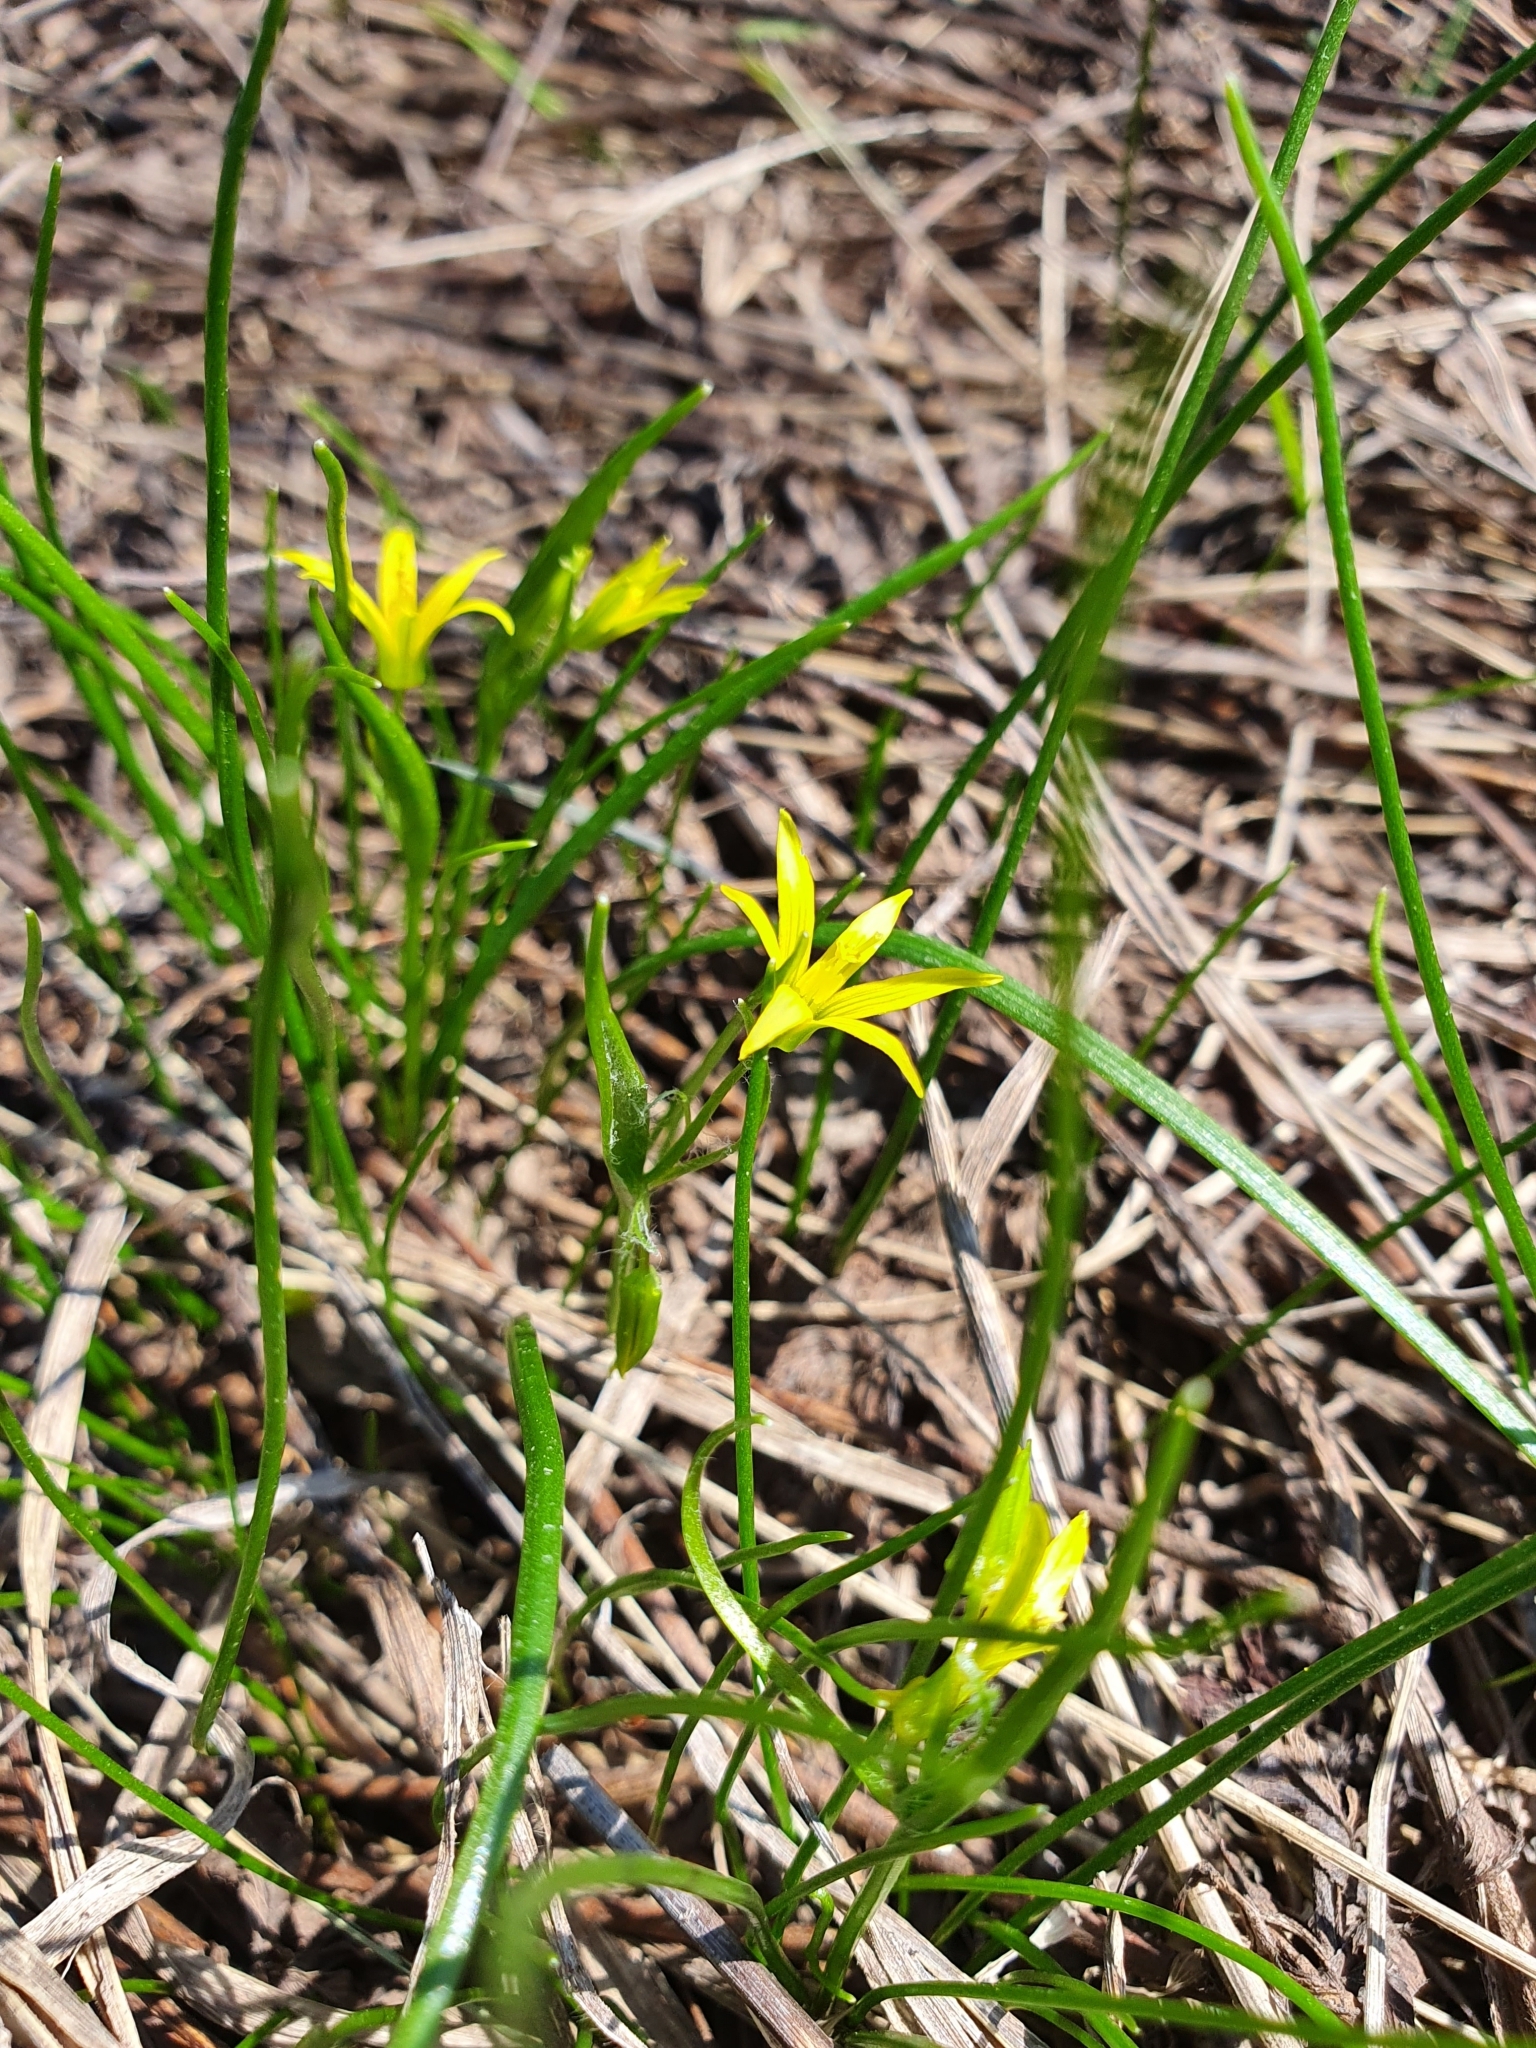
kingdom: Plantae
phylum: Tracheophyta
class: Liliopsida
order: Liliales
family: Liliaceae
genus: Gagea
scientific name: Gagea minima
